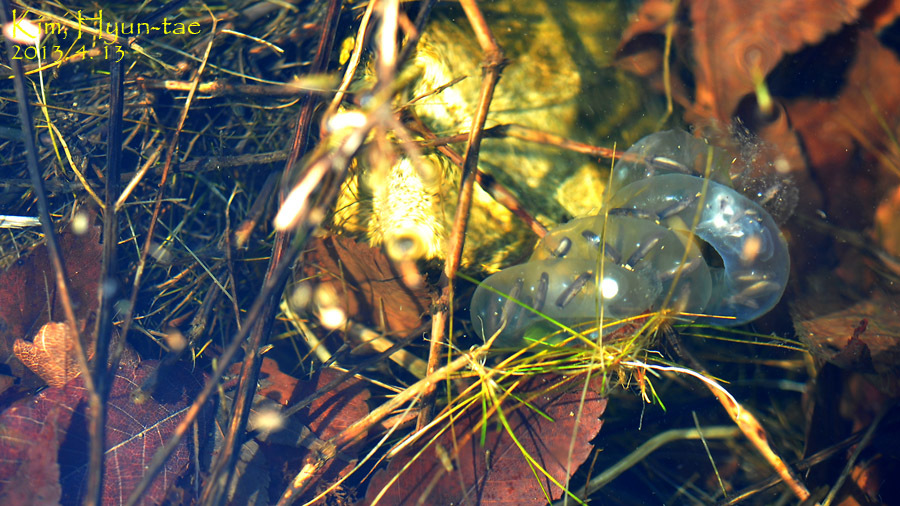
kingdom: Animalia
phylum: Chordata
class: Amphibia
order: Caudata
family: Hynobiidae
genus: Hynobius
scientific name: Hynobius leechii
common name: Gensan salamander
